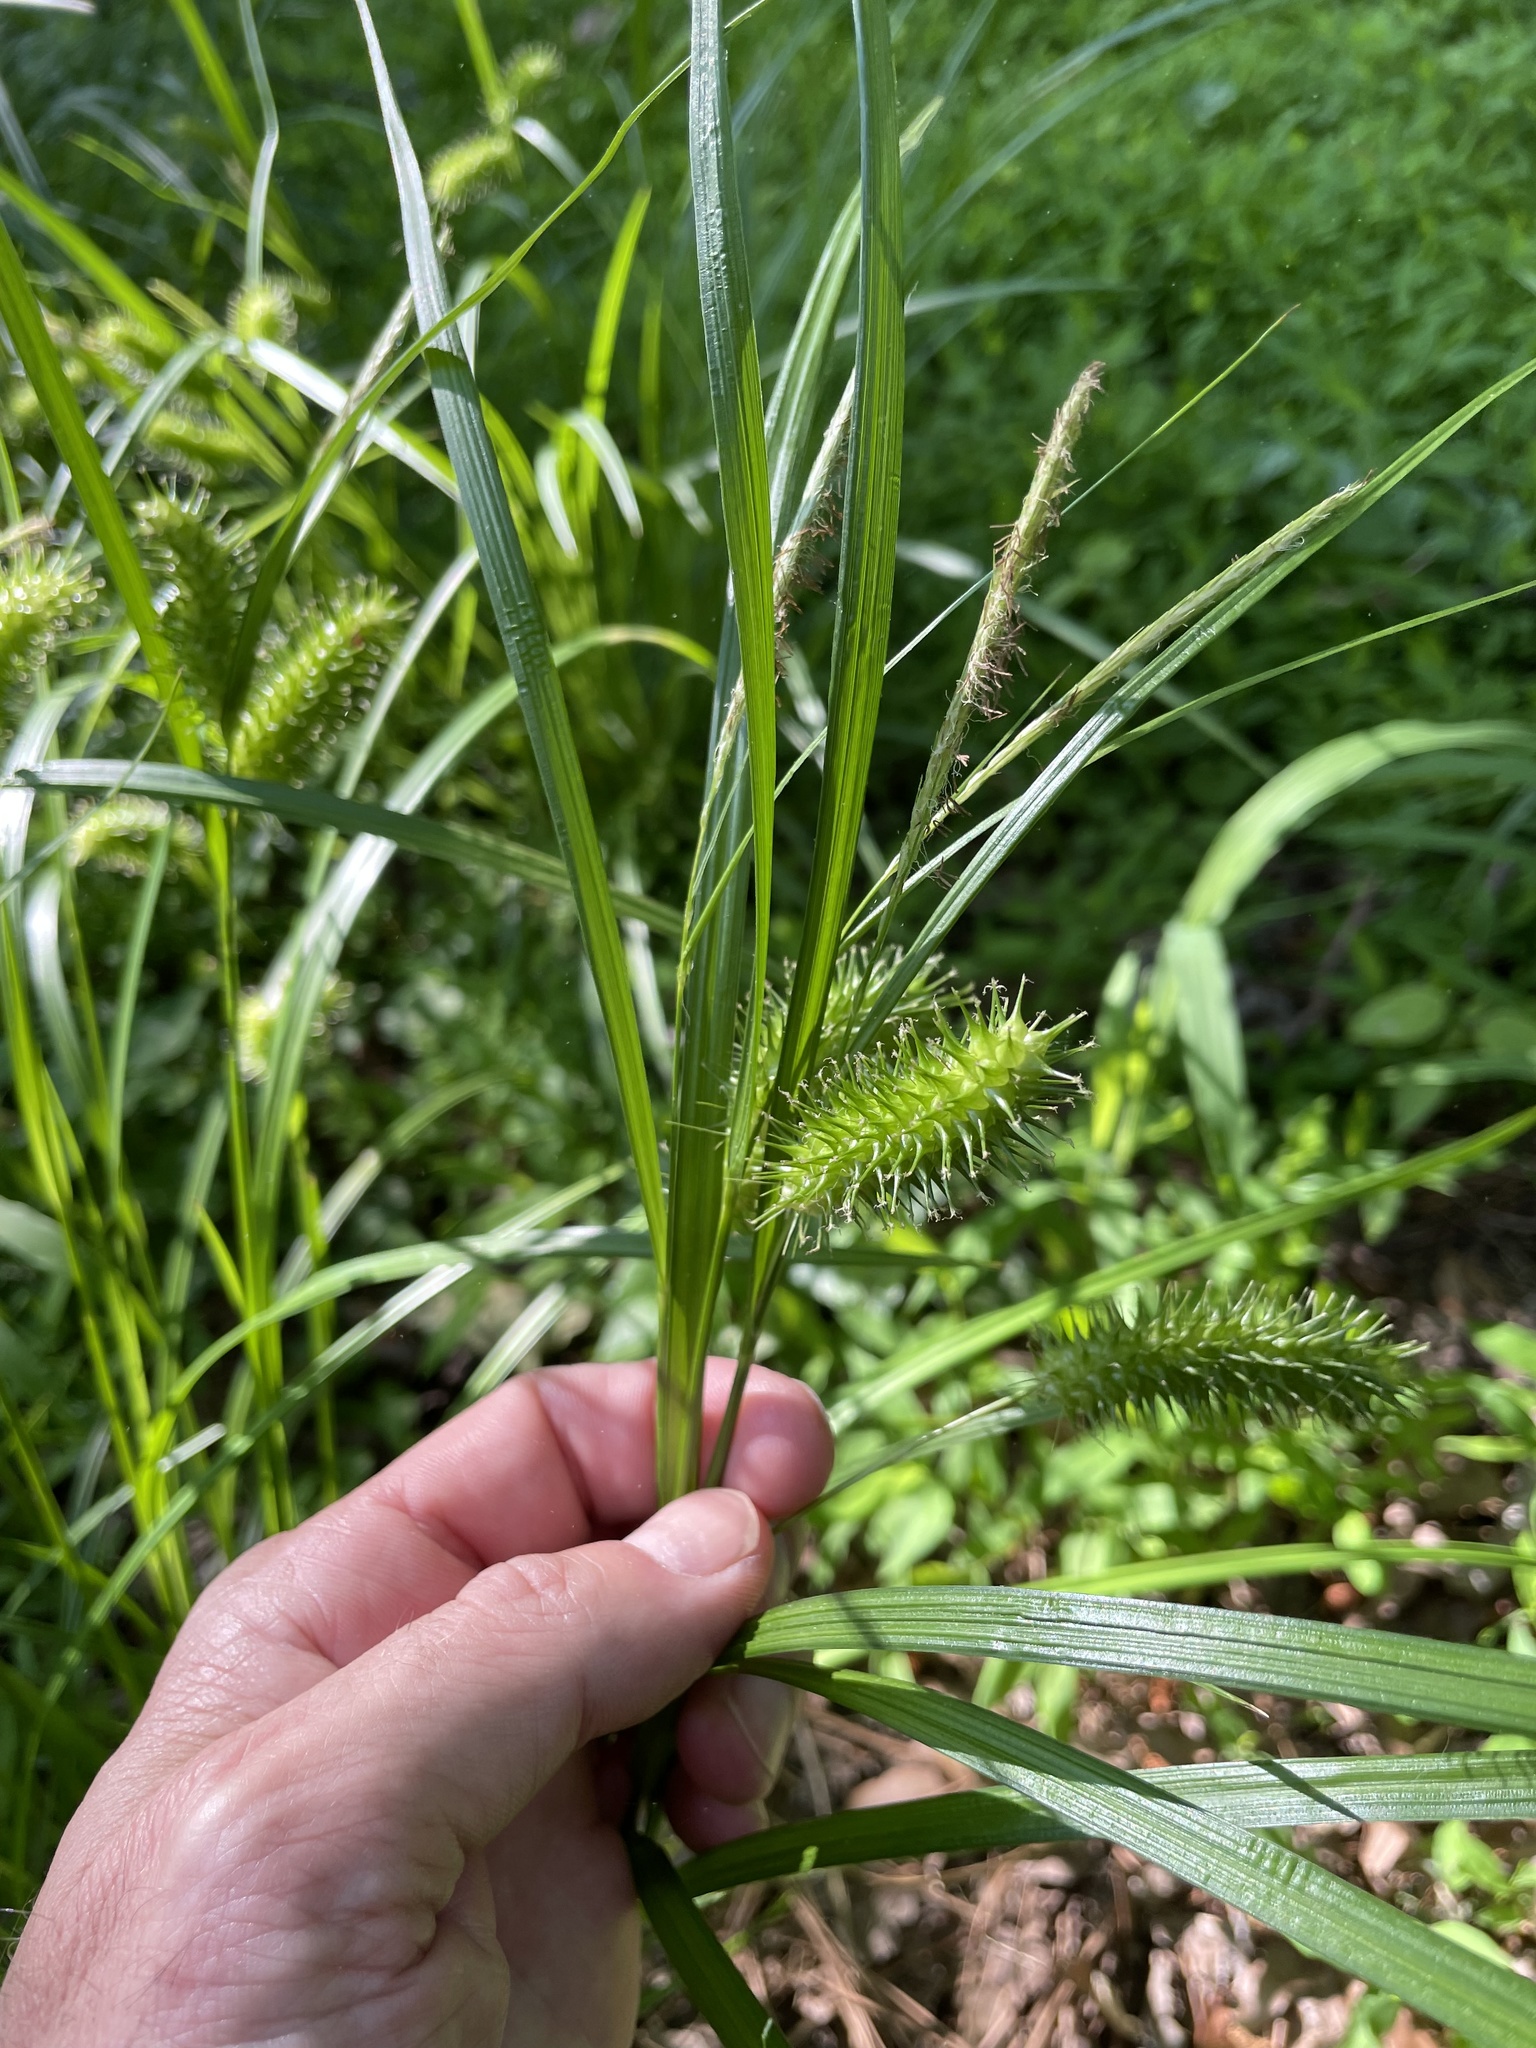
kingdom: Plantae
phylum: Tracheophyta
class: Liliopsida
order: Poales
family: Cyperaceae
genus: Carex
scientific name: Carex lurida
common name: Sallow sedge
